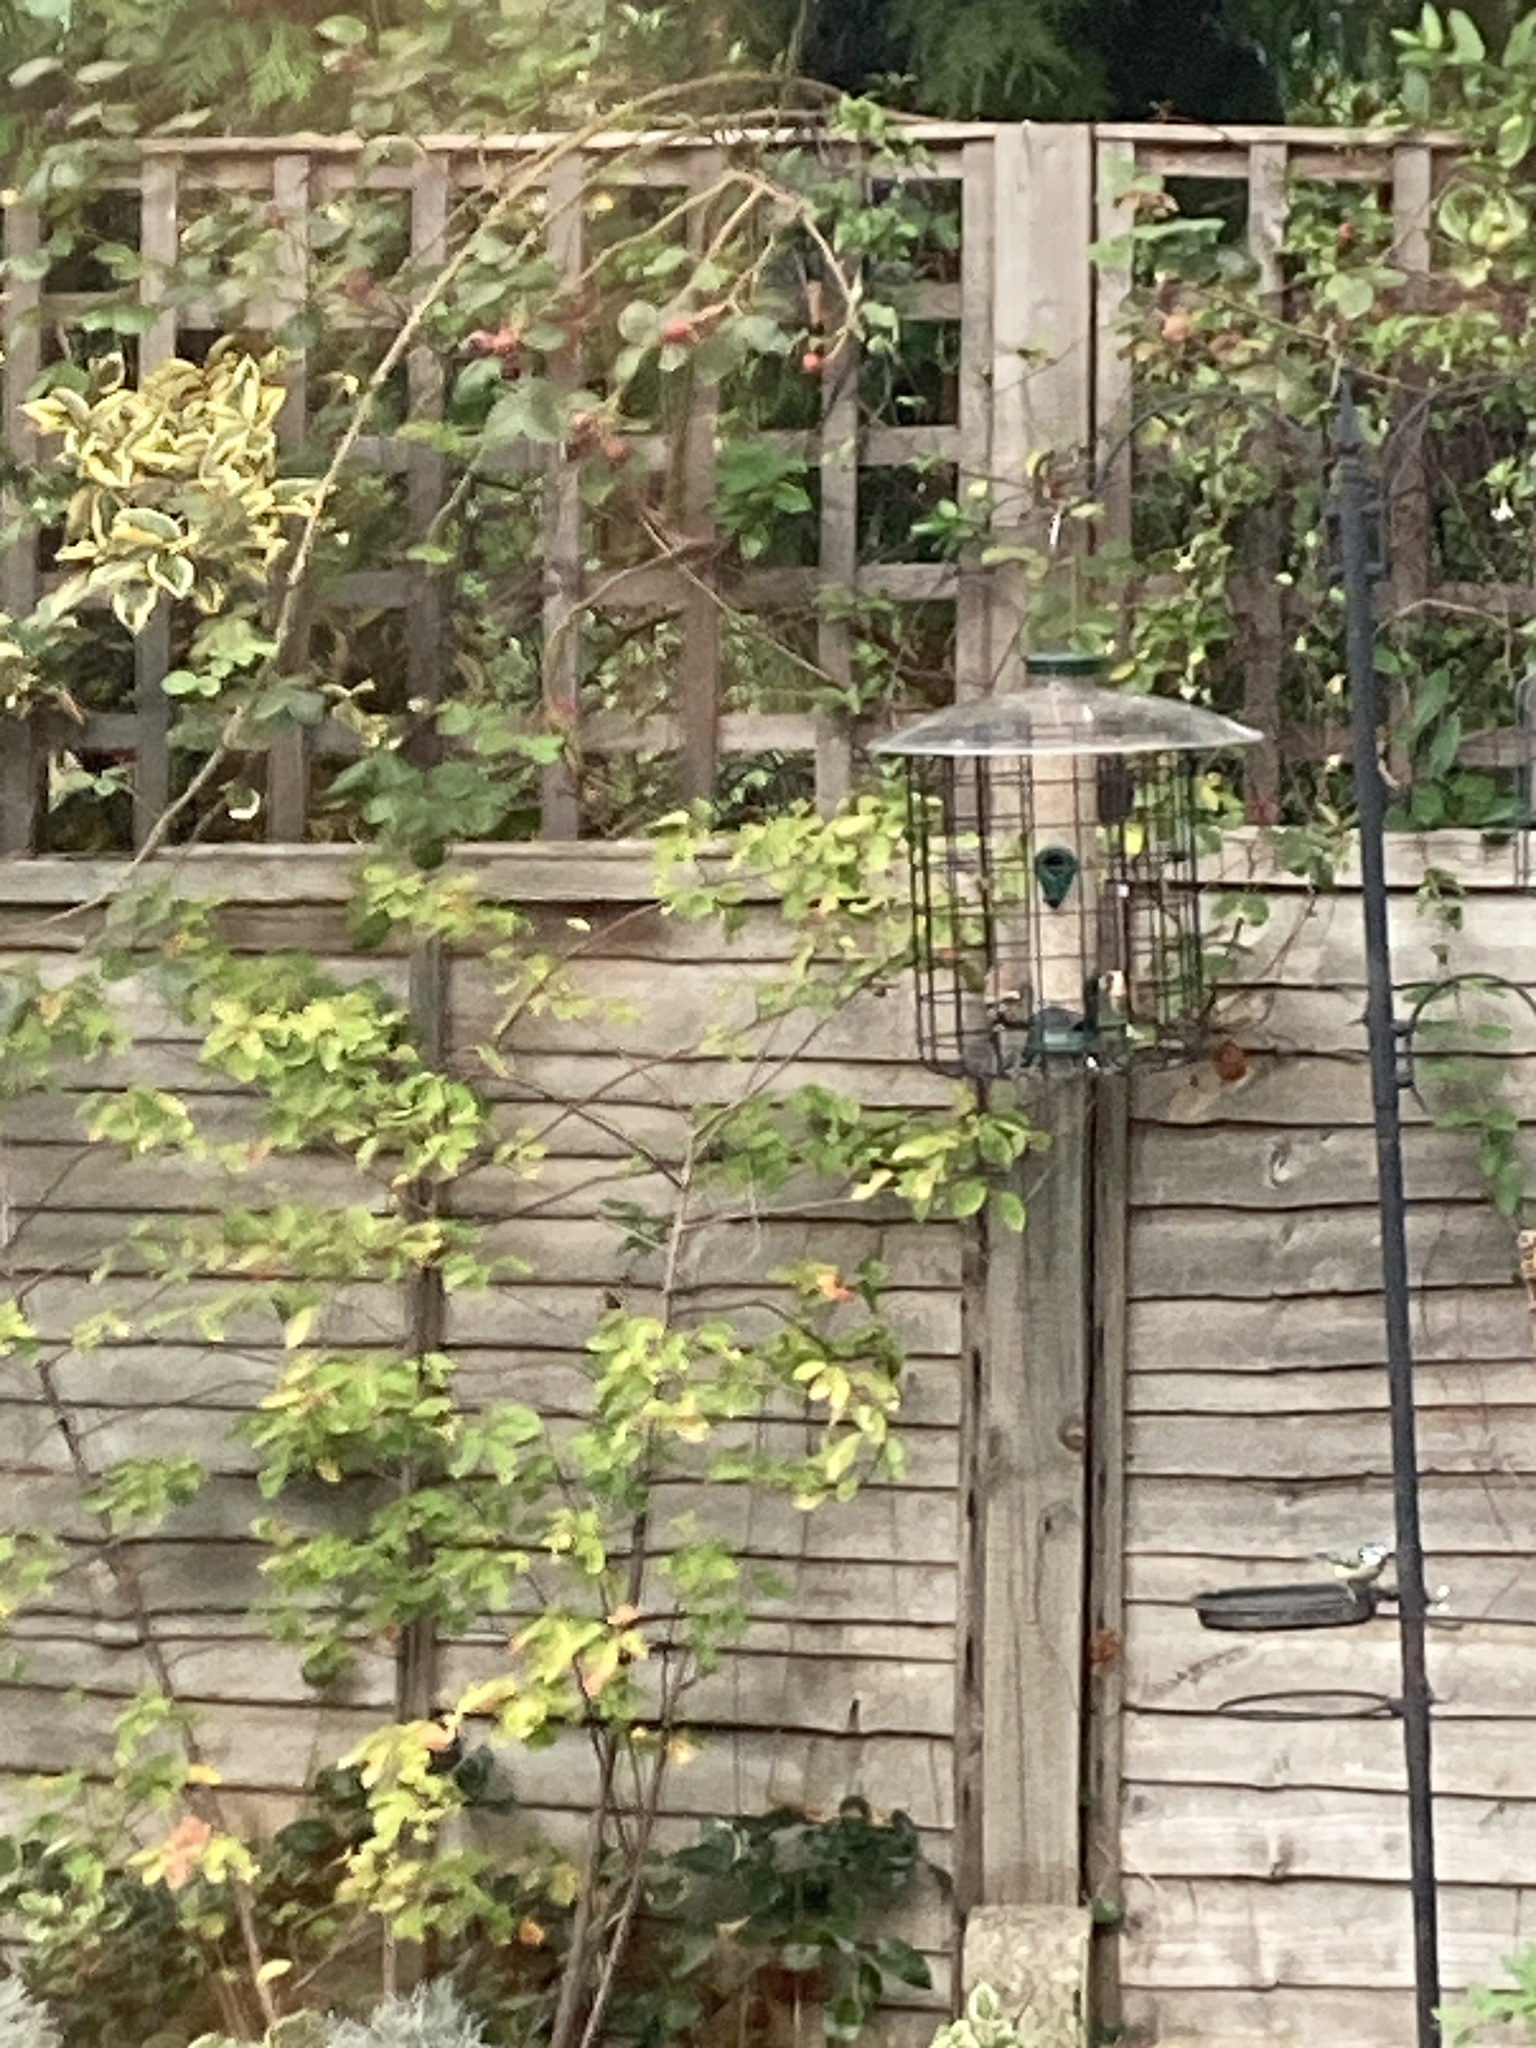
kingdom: Animalia
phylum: Chordata
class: Aves
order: Passeriformes
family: Fringillidae
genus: Carduelis
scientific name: Carduelis carduelis
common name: European goldfinch
